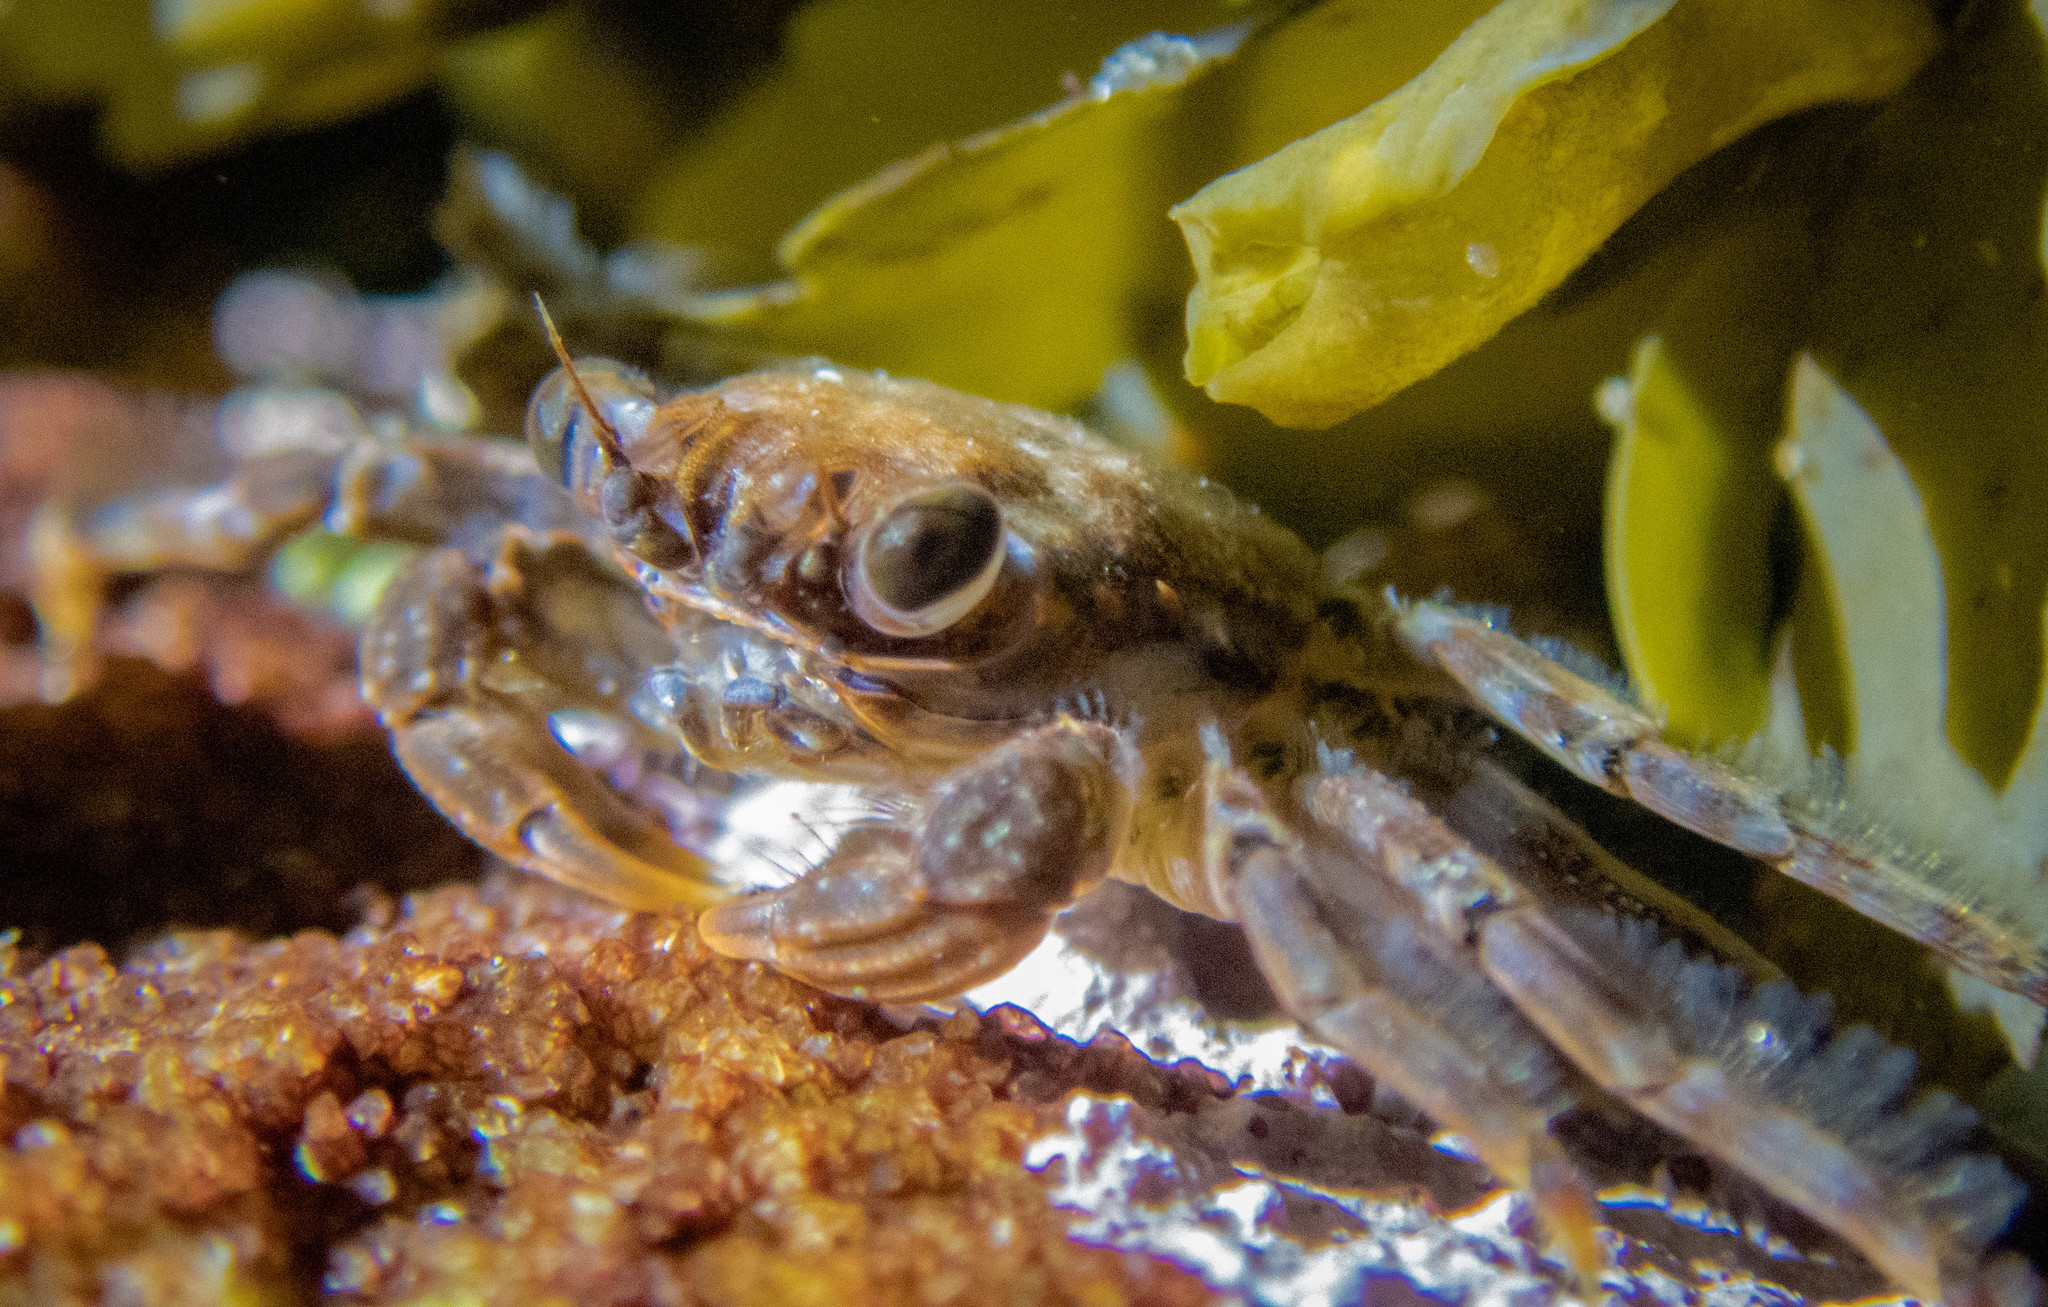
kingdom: Animalia
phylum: Arthropoda
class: Malacostraca
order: Decapoda
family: Plagusiidae
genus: Guinusia
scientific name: Guinusia chabrus
